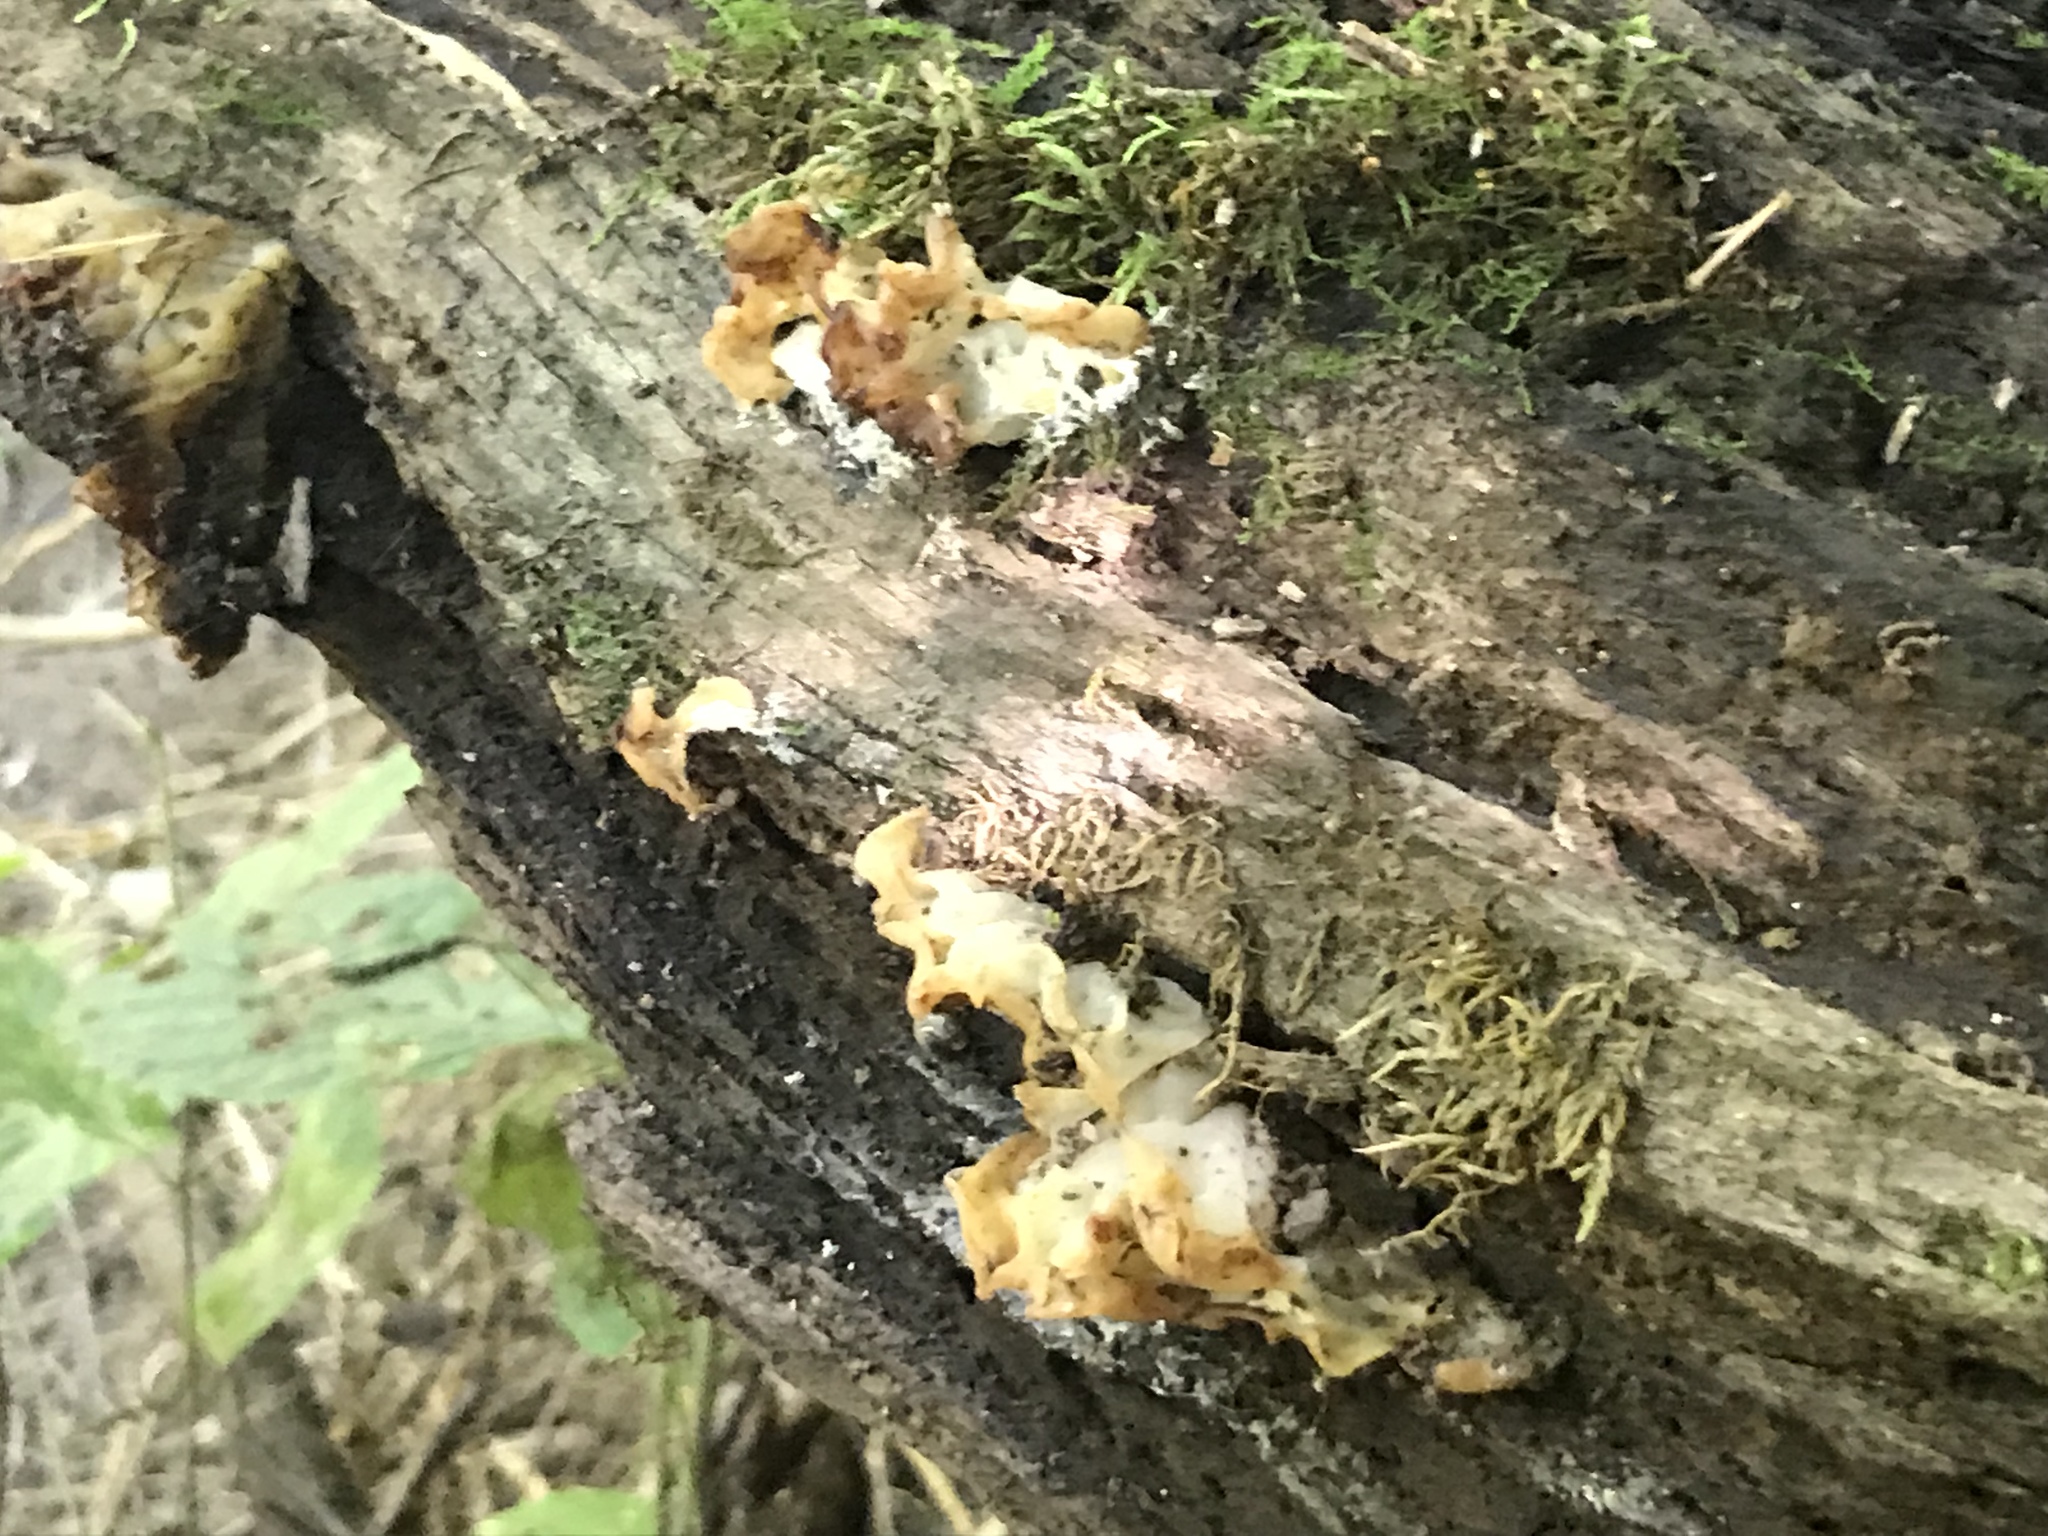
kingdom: Fungi
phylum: Basidiomycota
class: Agaricomycetes
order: Auriculariales
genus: Ductifera
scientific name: Ductifera pululahuana
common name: White jelly fungus
